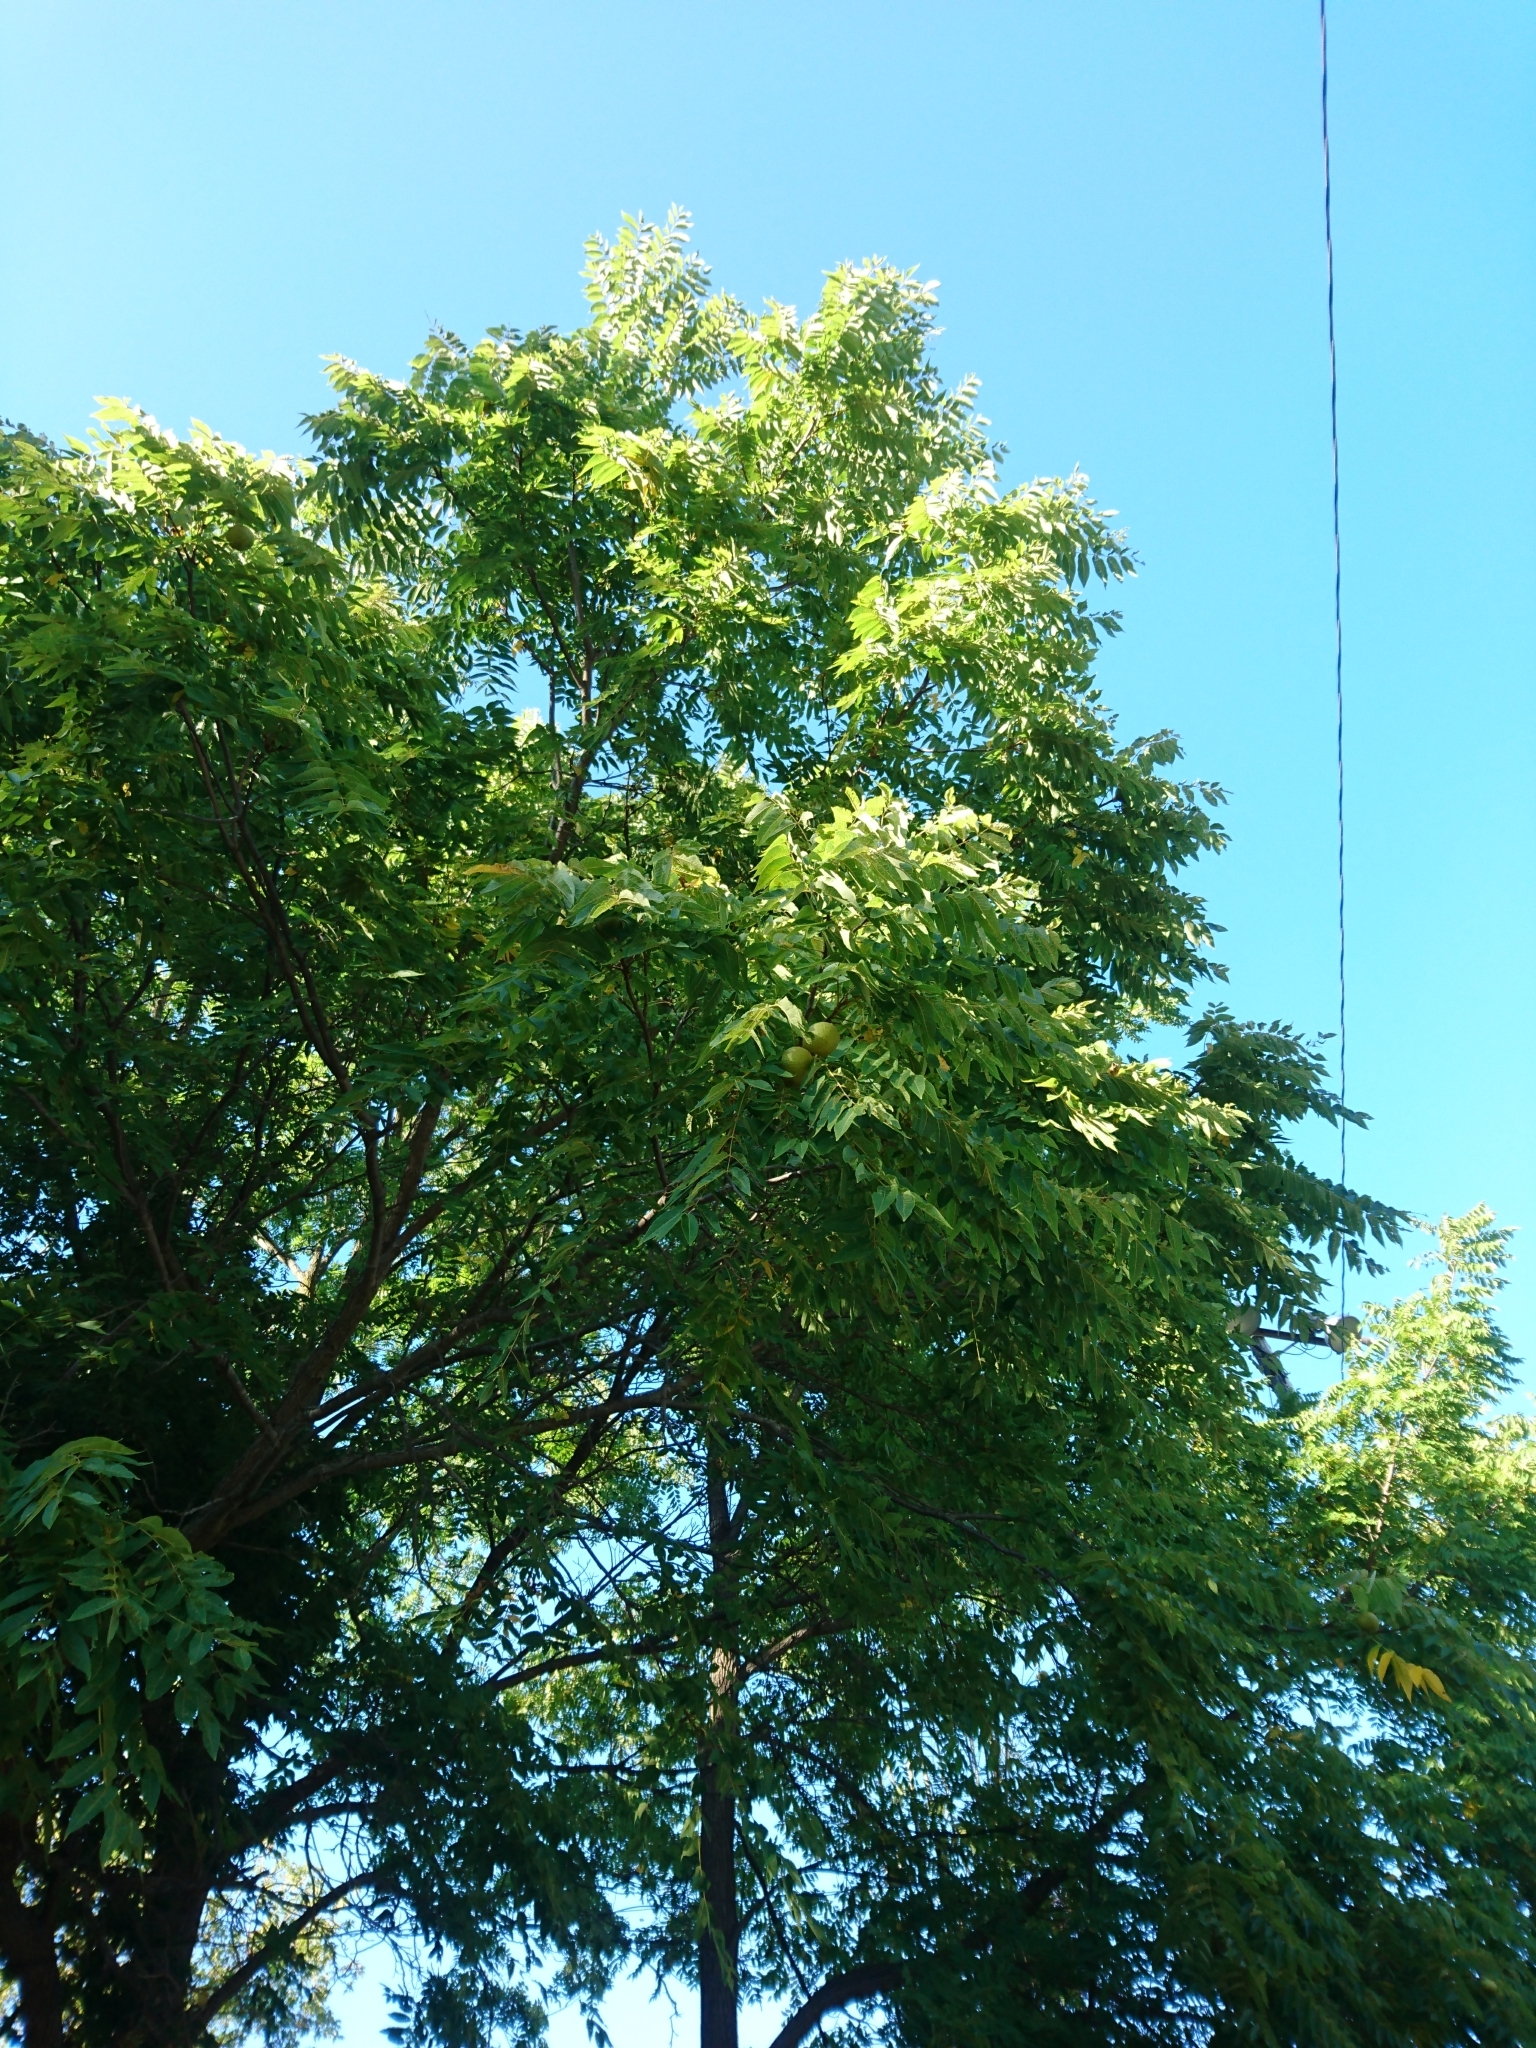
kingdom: Plantae
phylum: Tracheophyta
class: Magnoliopsida
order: Fagales
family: Juglandaceae
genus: Juglans
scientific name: Juglans nigra
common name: Black walnut
